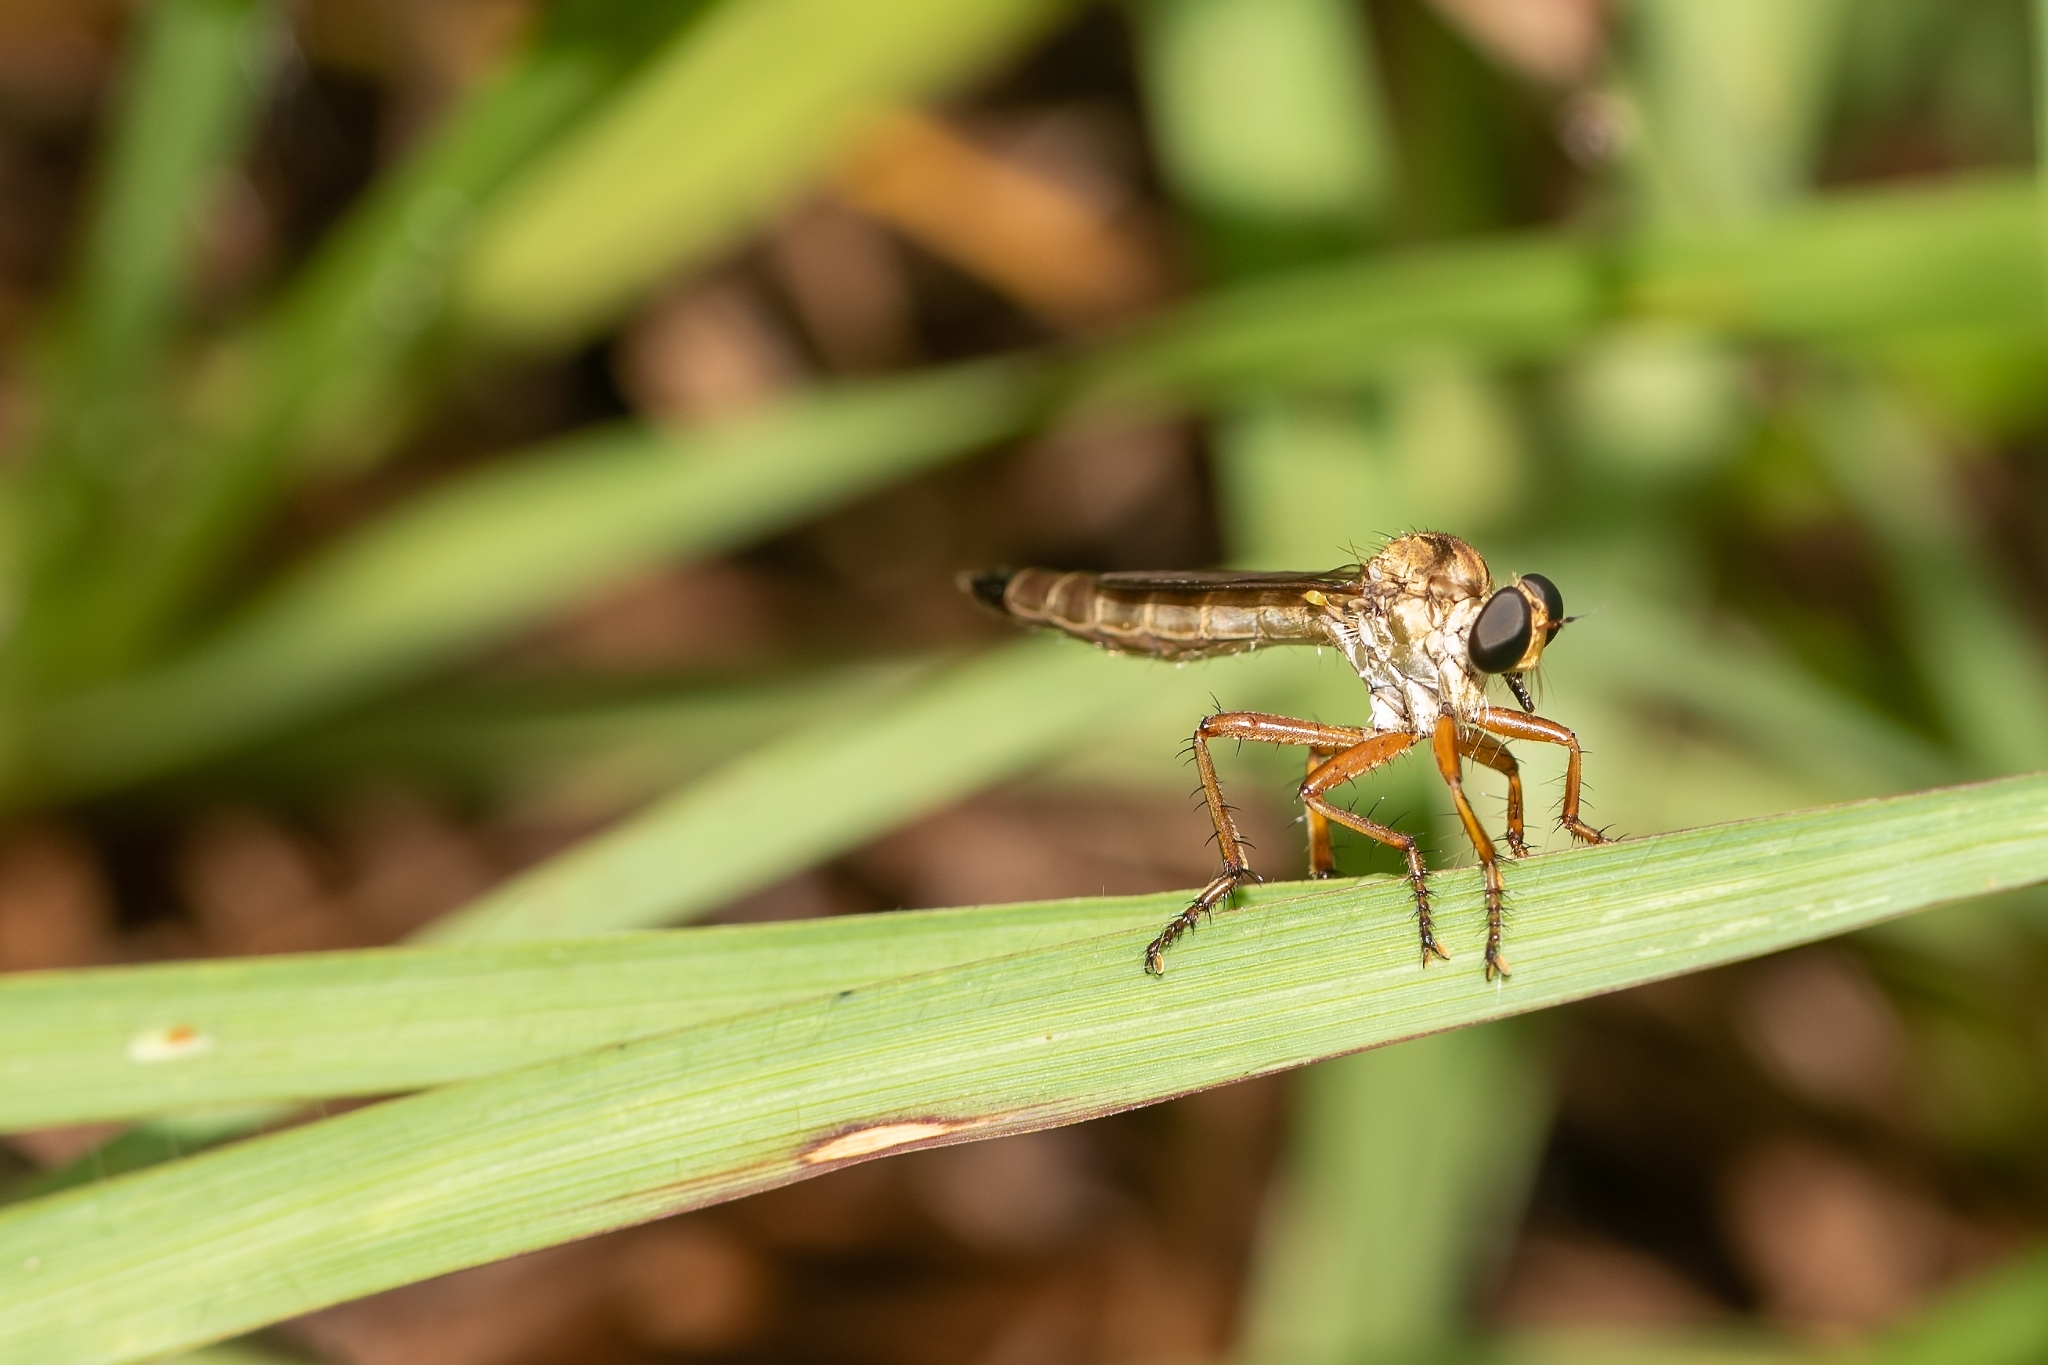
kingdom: Animalia
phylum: Arthropoda
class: Insecta
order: Diptera
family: Asilidae
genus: Polacantha
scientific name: Polacantha gracilis
